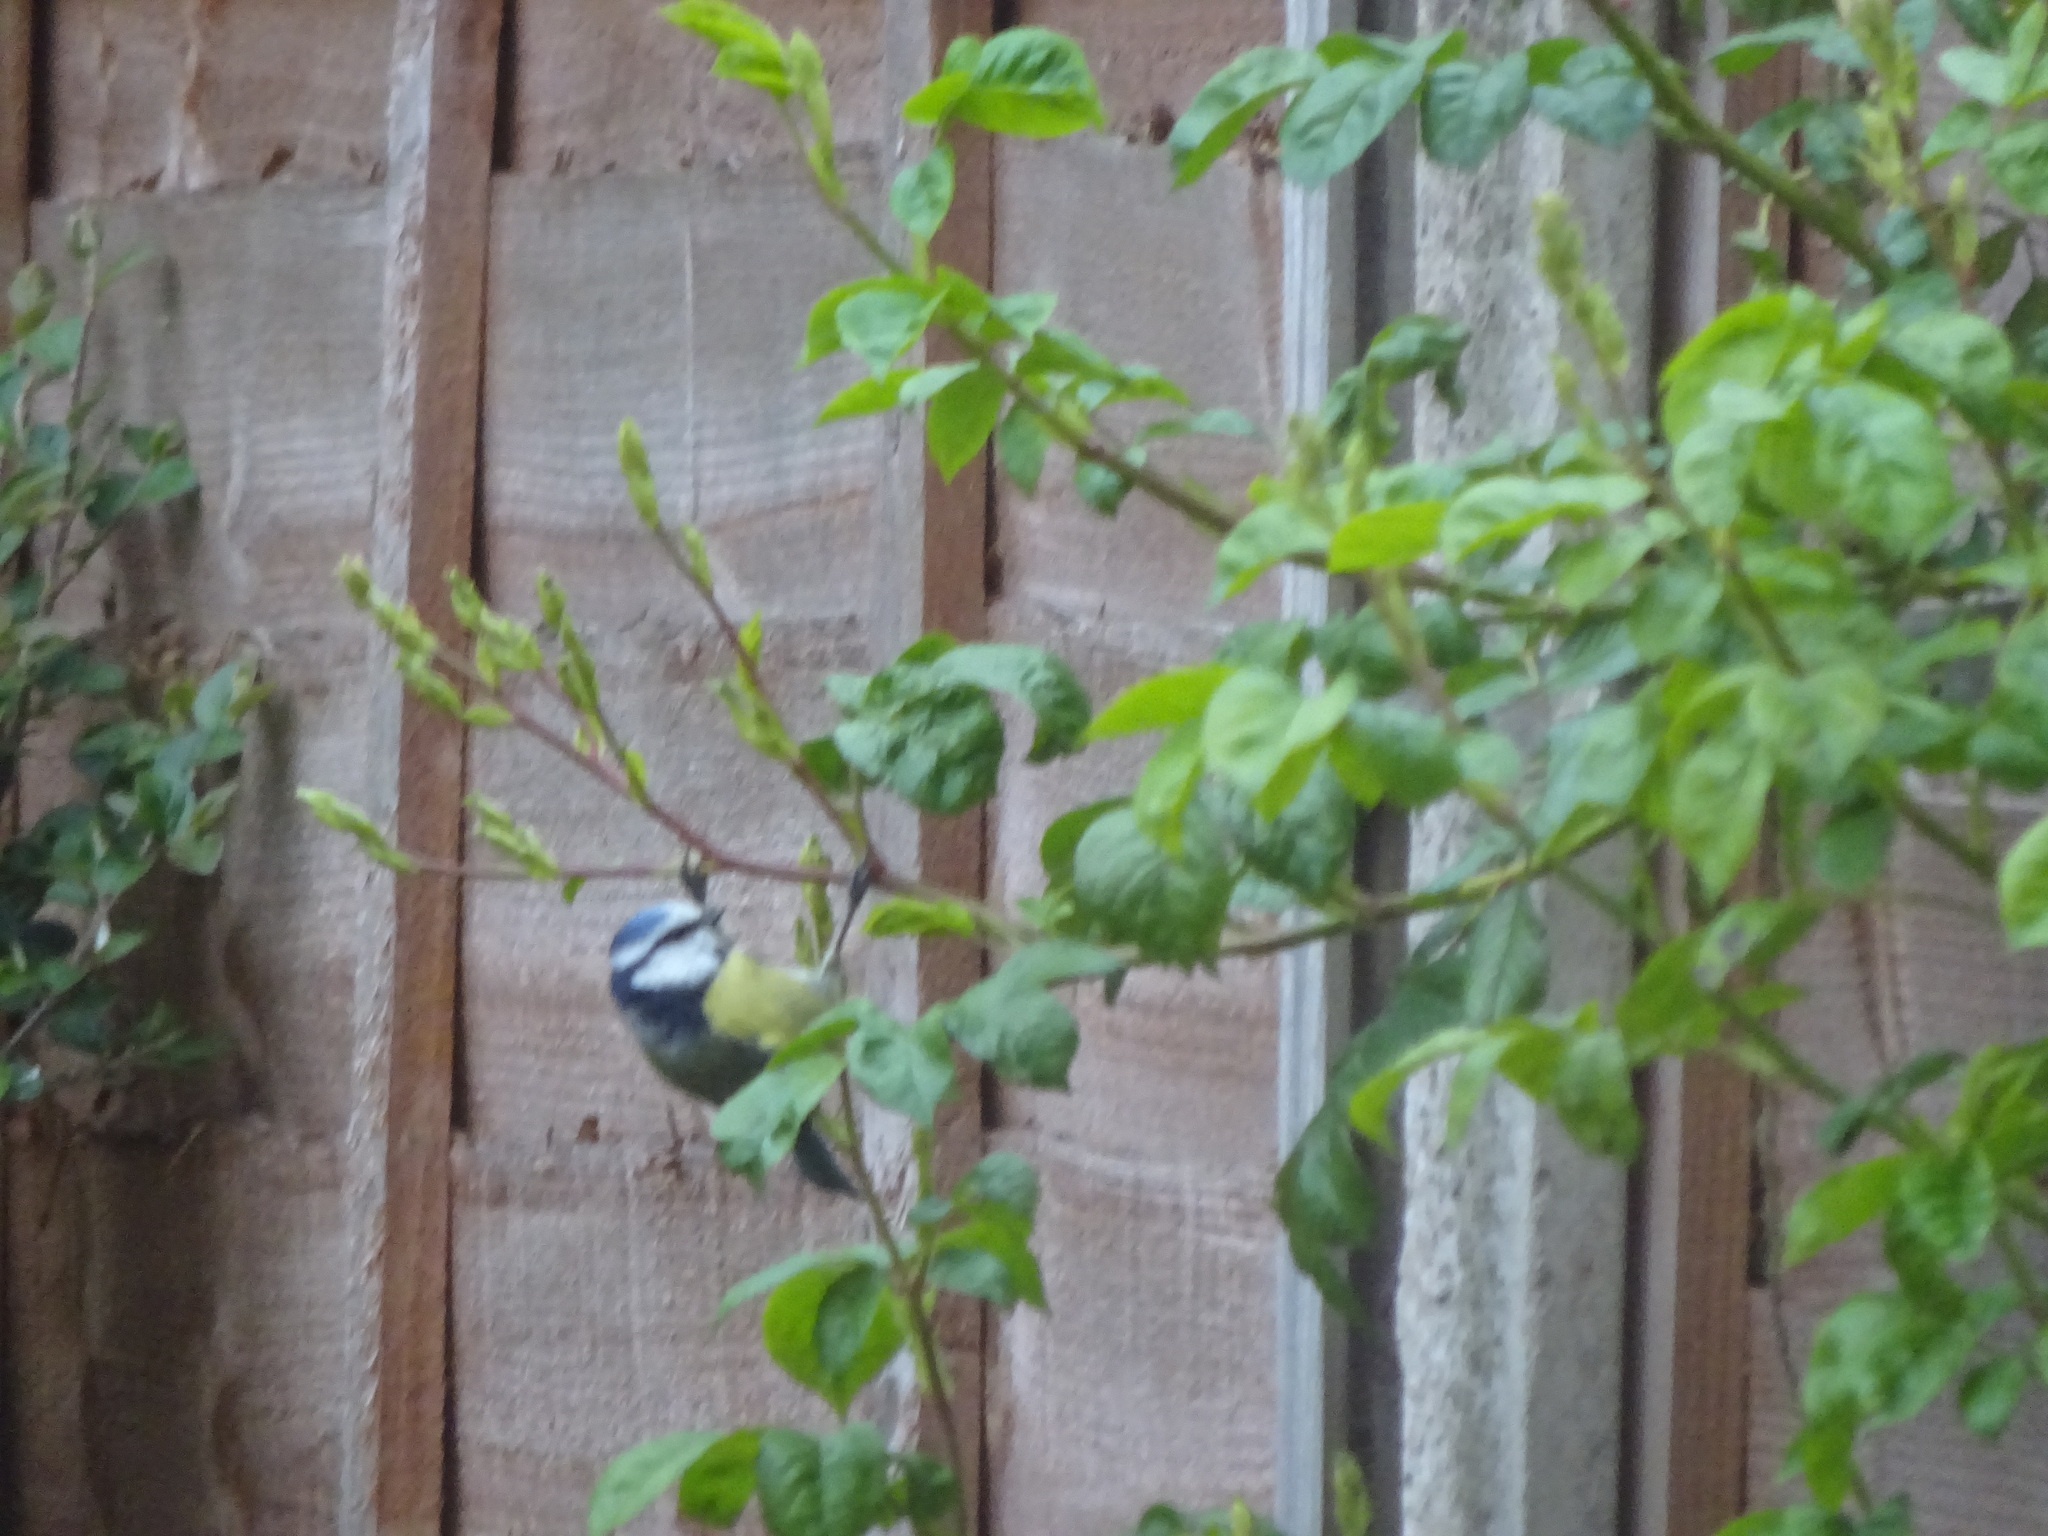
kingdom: Animalia
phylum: Chordata
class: Aves
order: Passeriformes
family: Paridae
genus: Cyanistes
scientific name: Cyanistes caeruleus
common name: Eurasian blue tit
